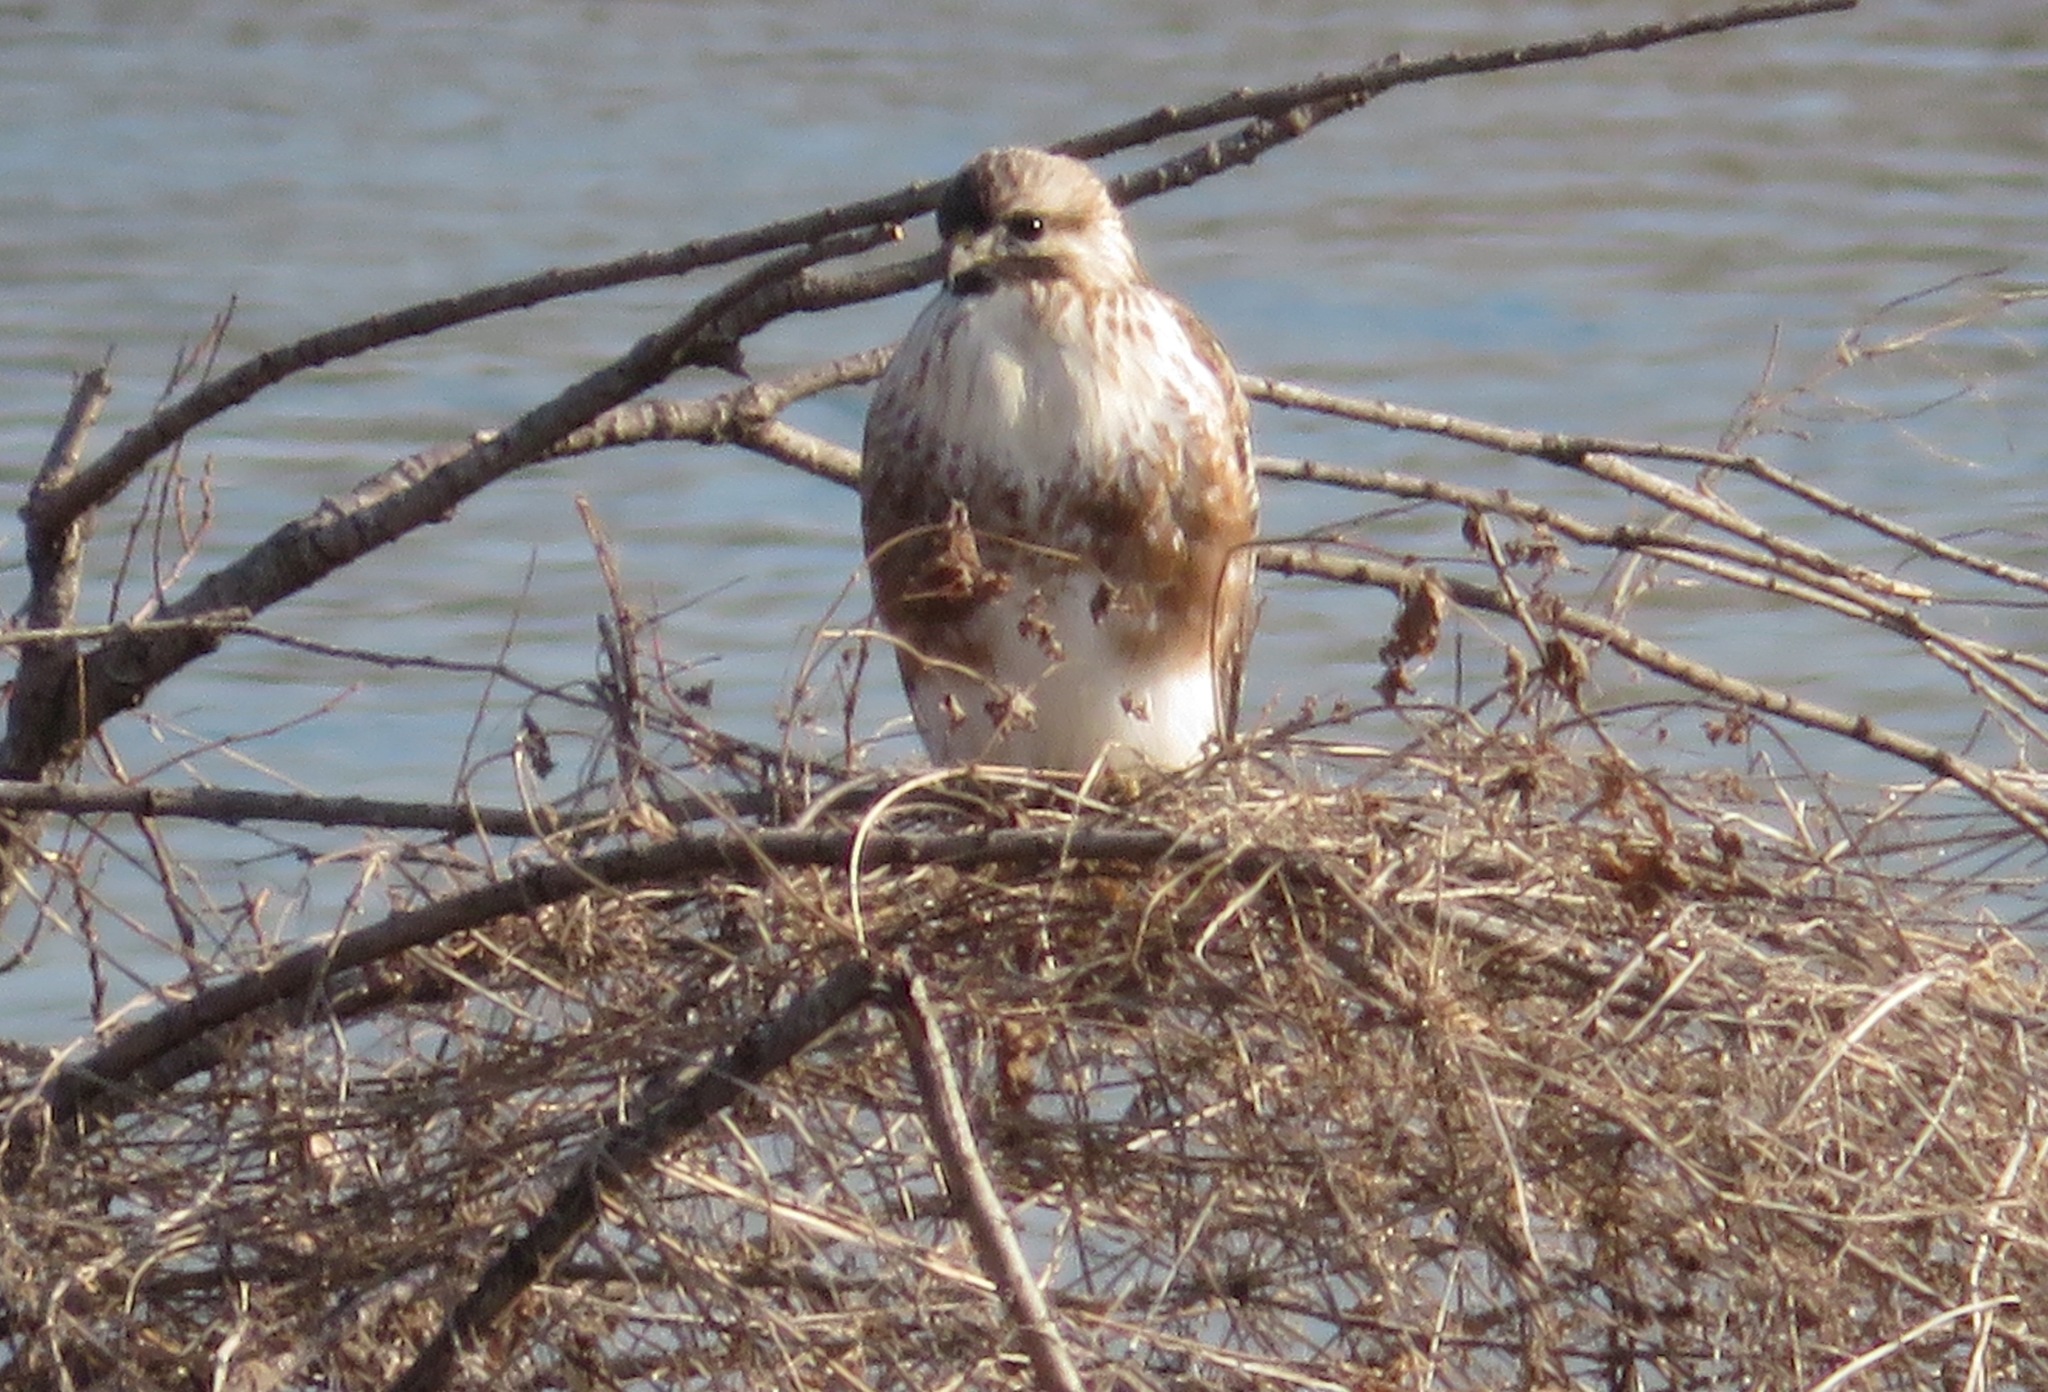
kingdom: Animalia
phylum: Chordata
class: Aves
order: Accipitriformes
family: Accipitridae
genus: Buteo
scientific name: Buteo japonicus
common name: Eastern buzzard
